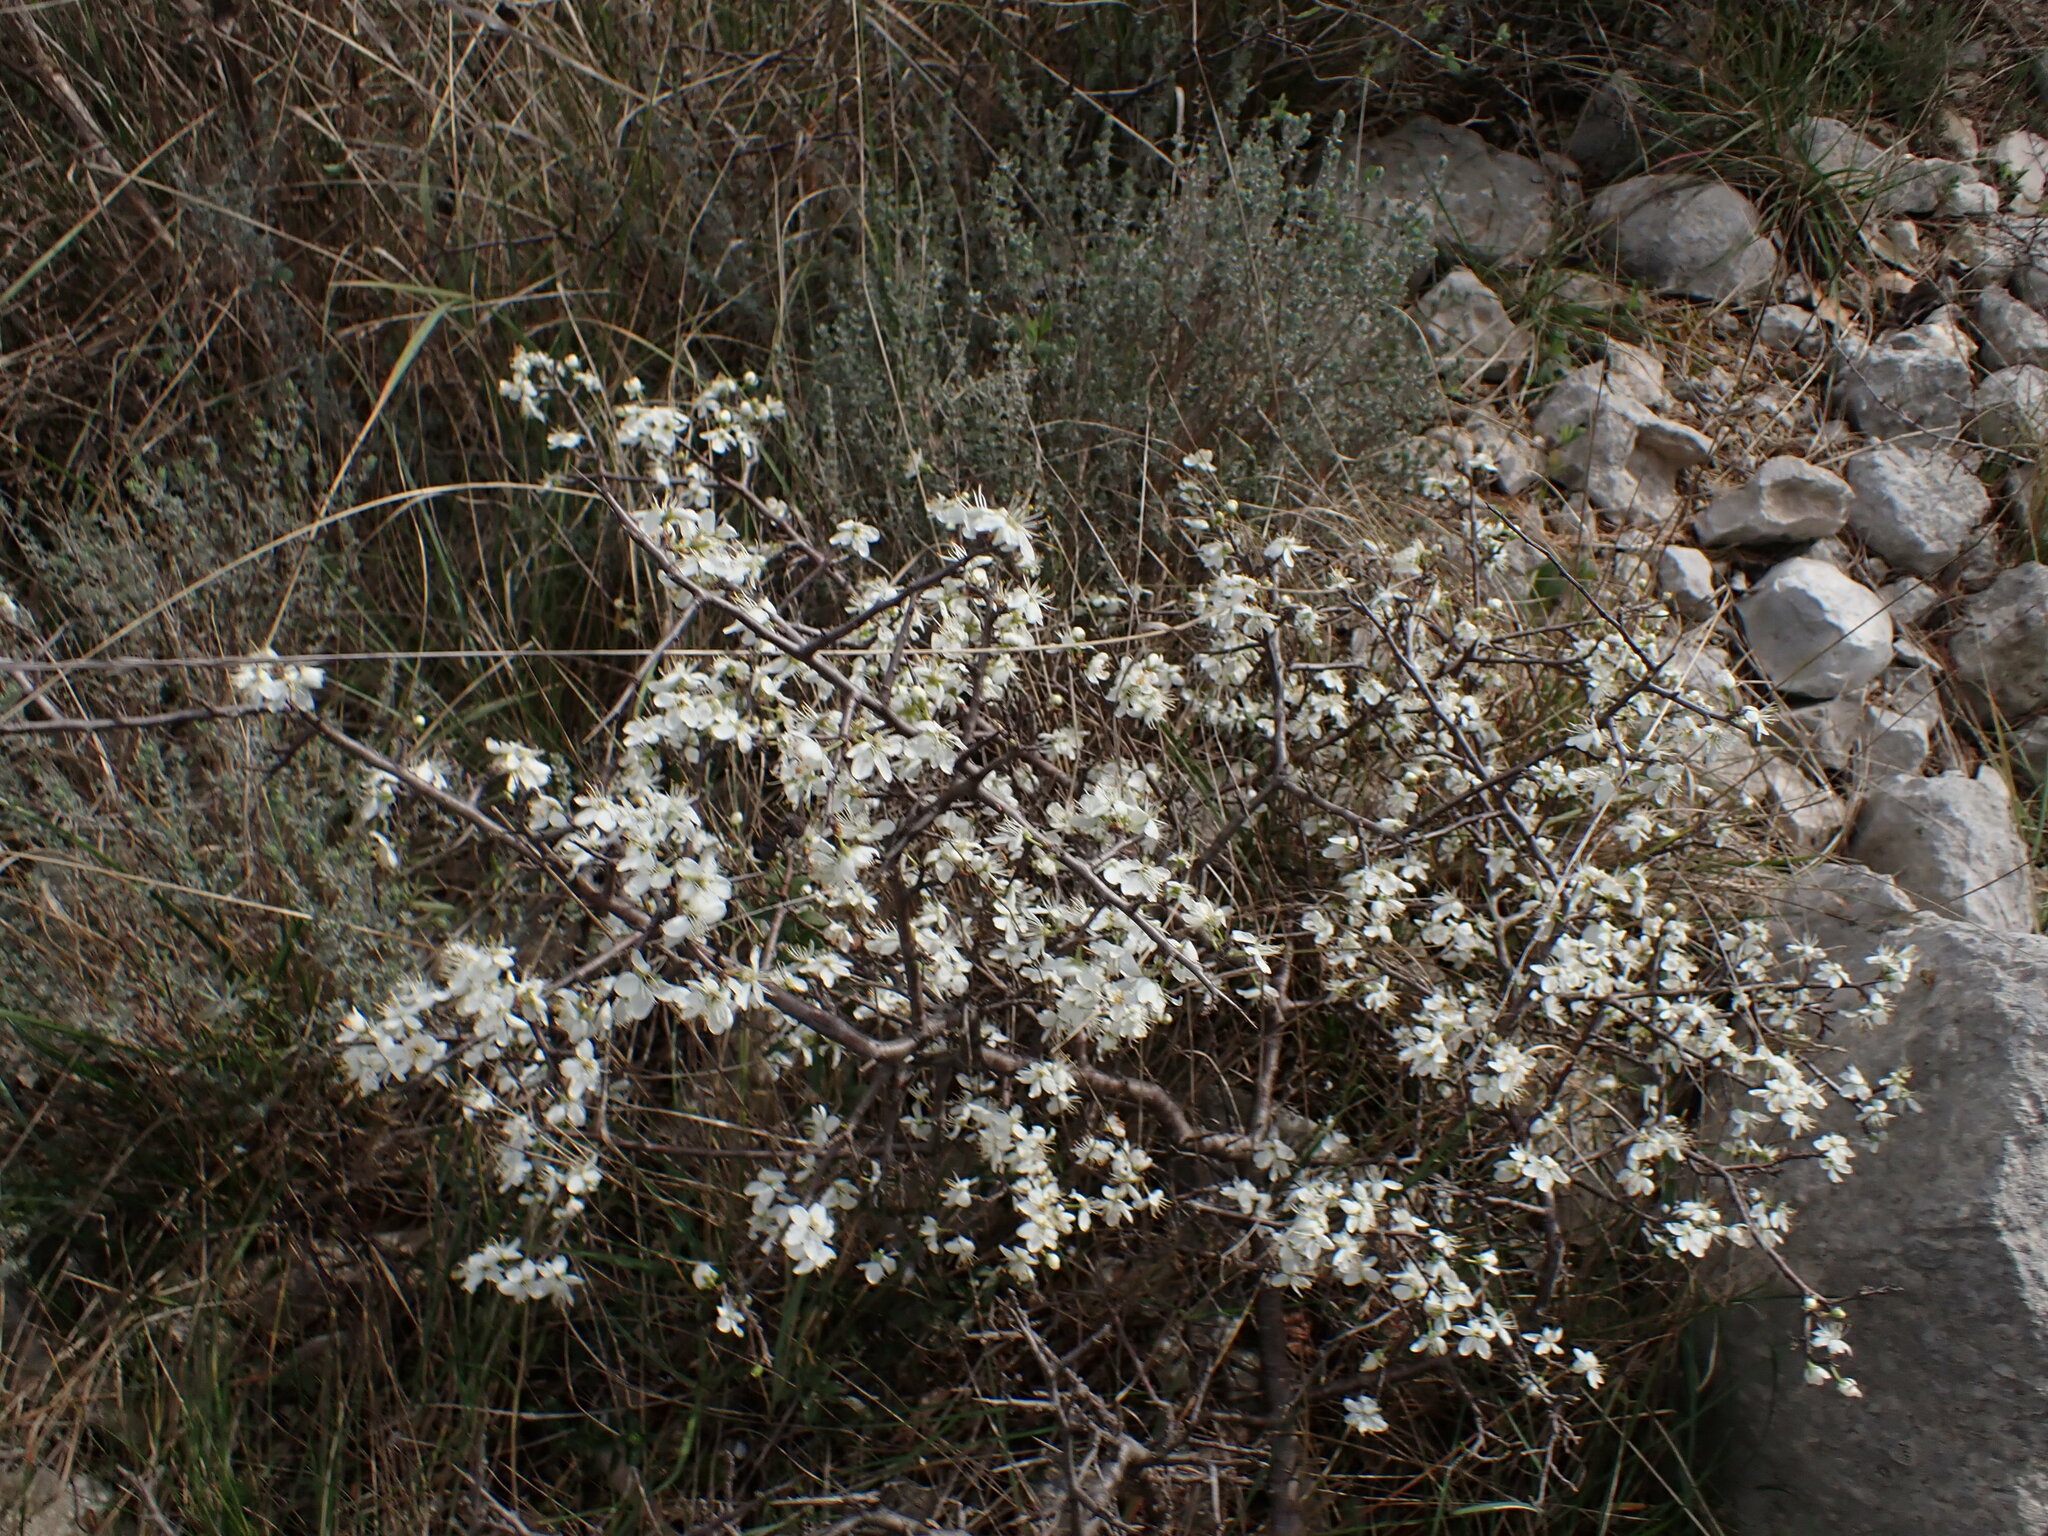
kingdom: Plantae
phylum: Tracheophyta
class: Magnoliopsida
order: Rosales
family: Rosaceae
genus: Prunus
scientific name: Prunus spinosa
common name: Blackthorn
